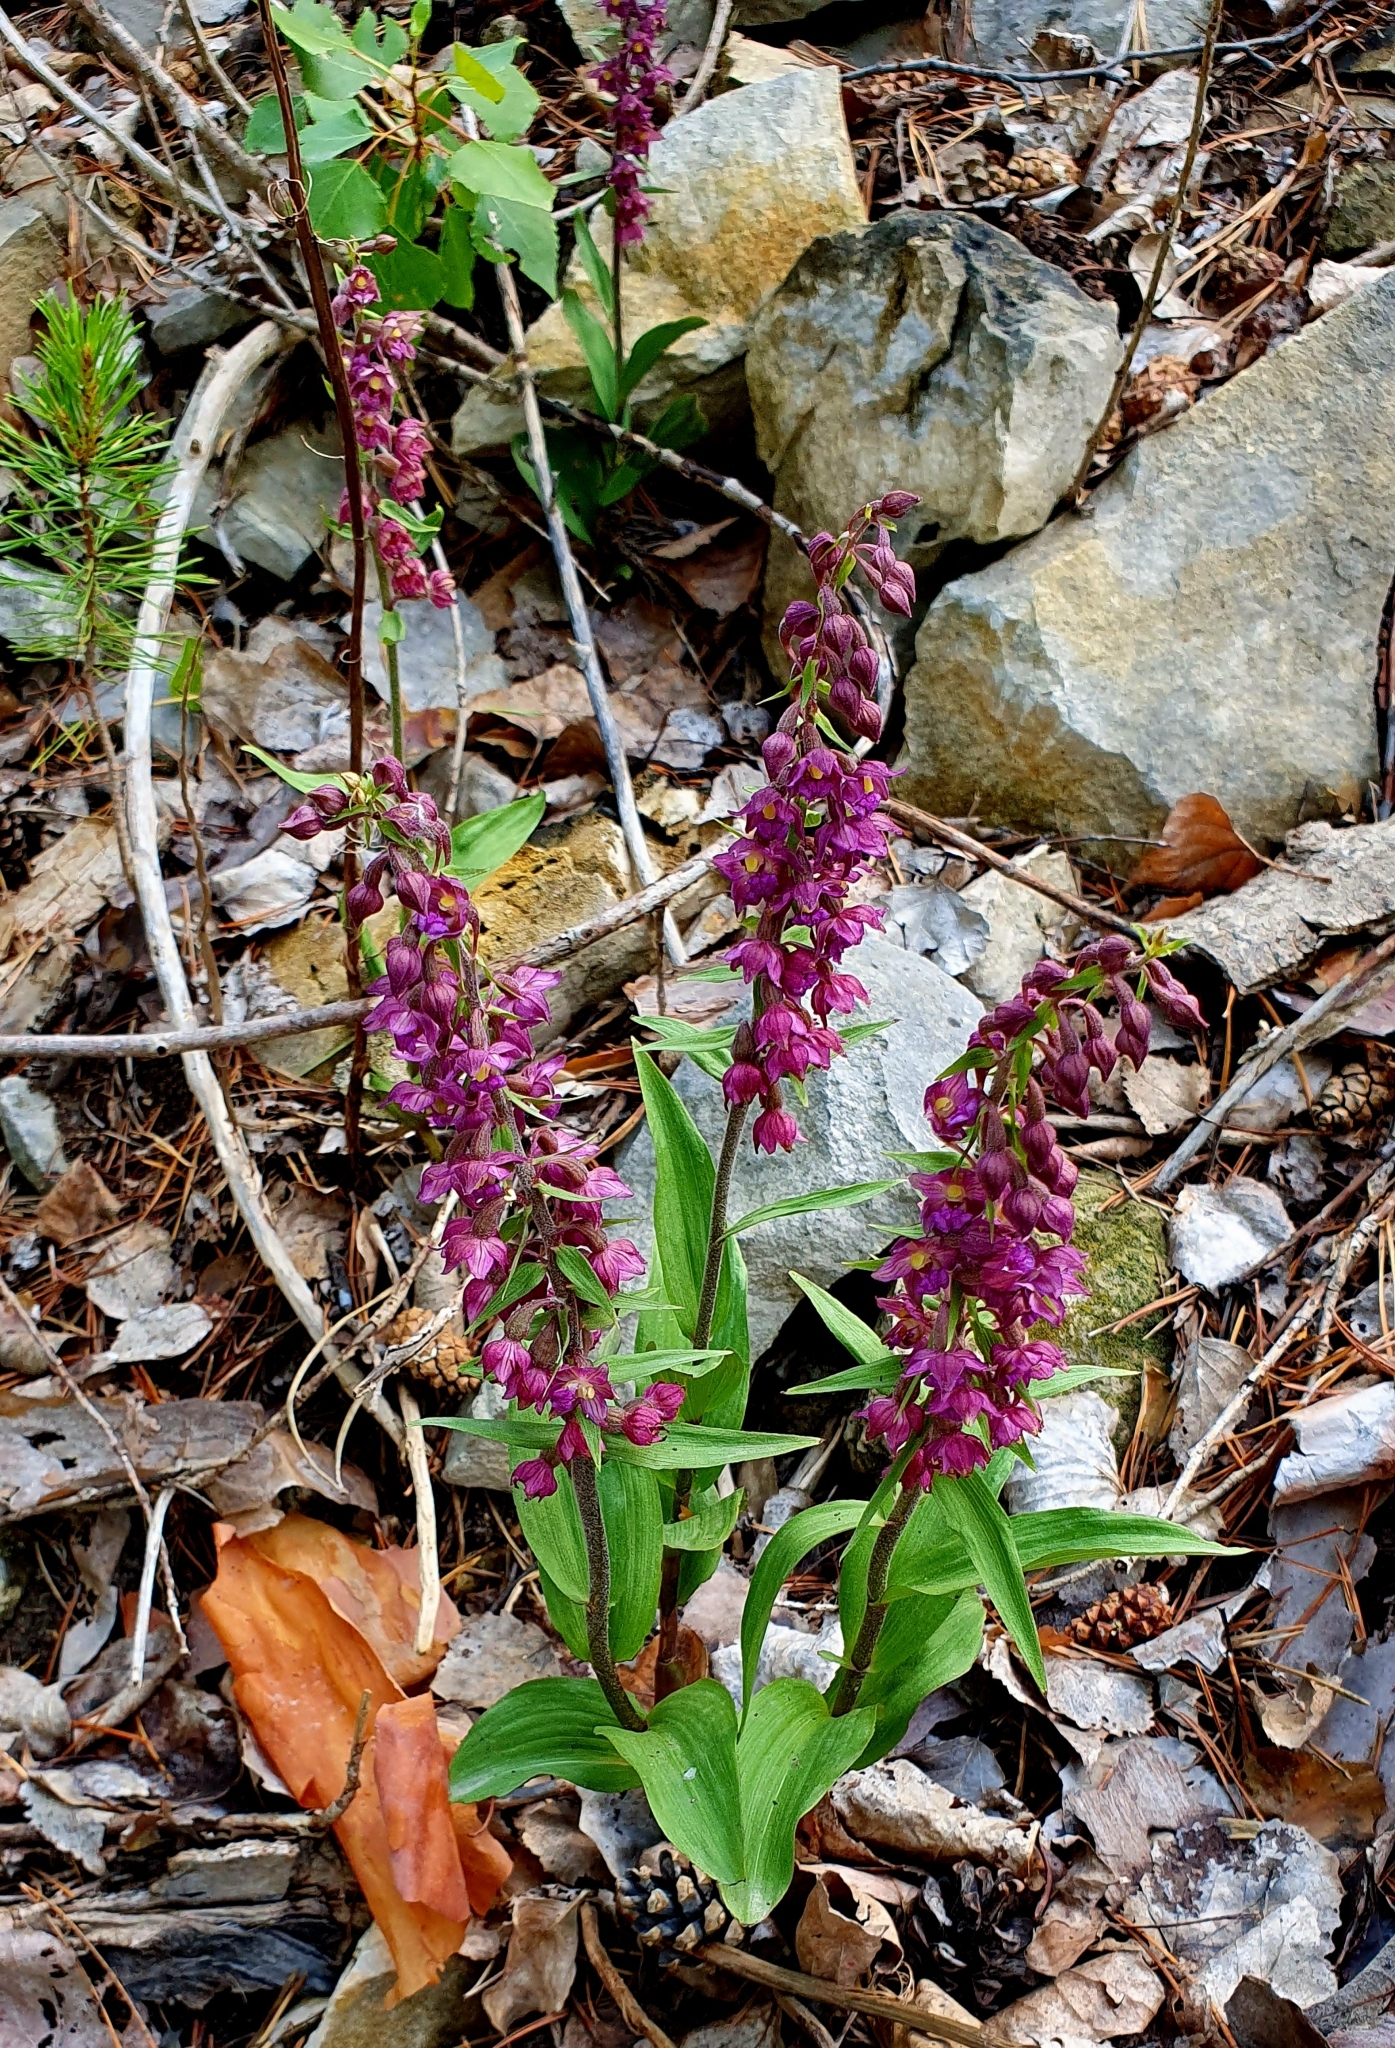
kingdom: Plantae
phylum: Tracheophyta
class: Liliopsida
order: Asparagales
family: Orchidaceae
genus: Epipactis
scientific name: Epipactis atrorubens
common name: Dark-red helleborine
